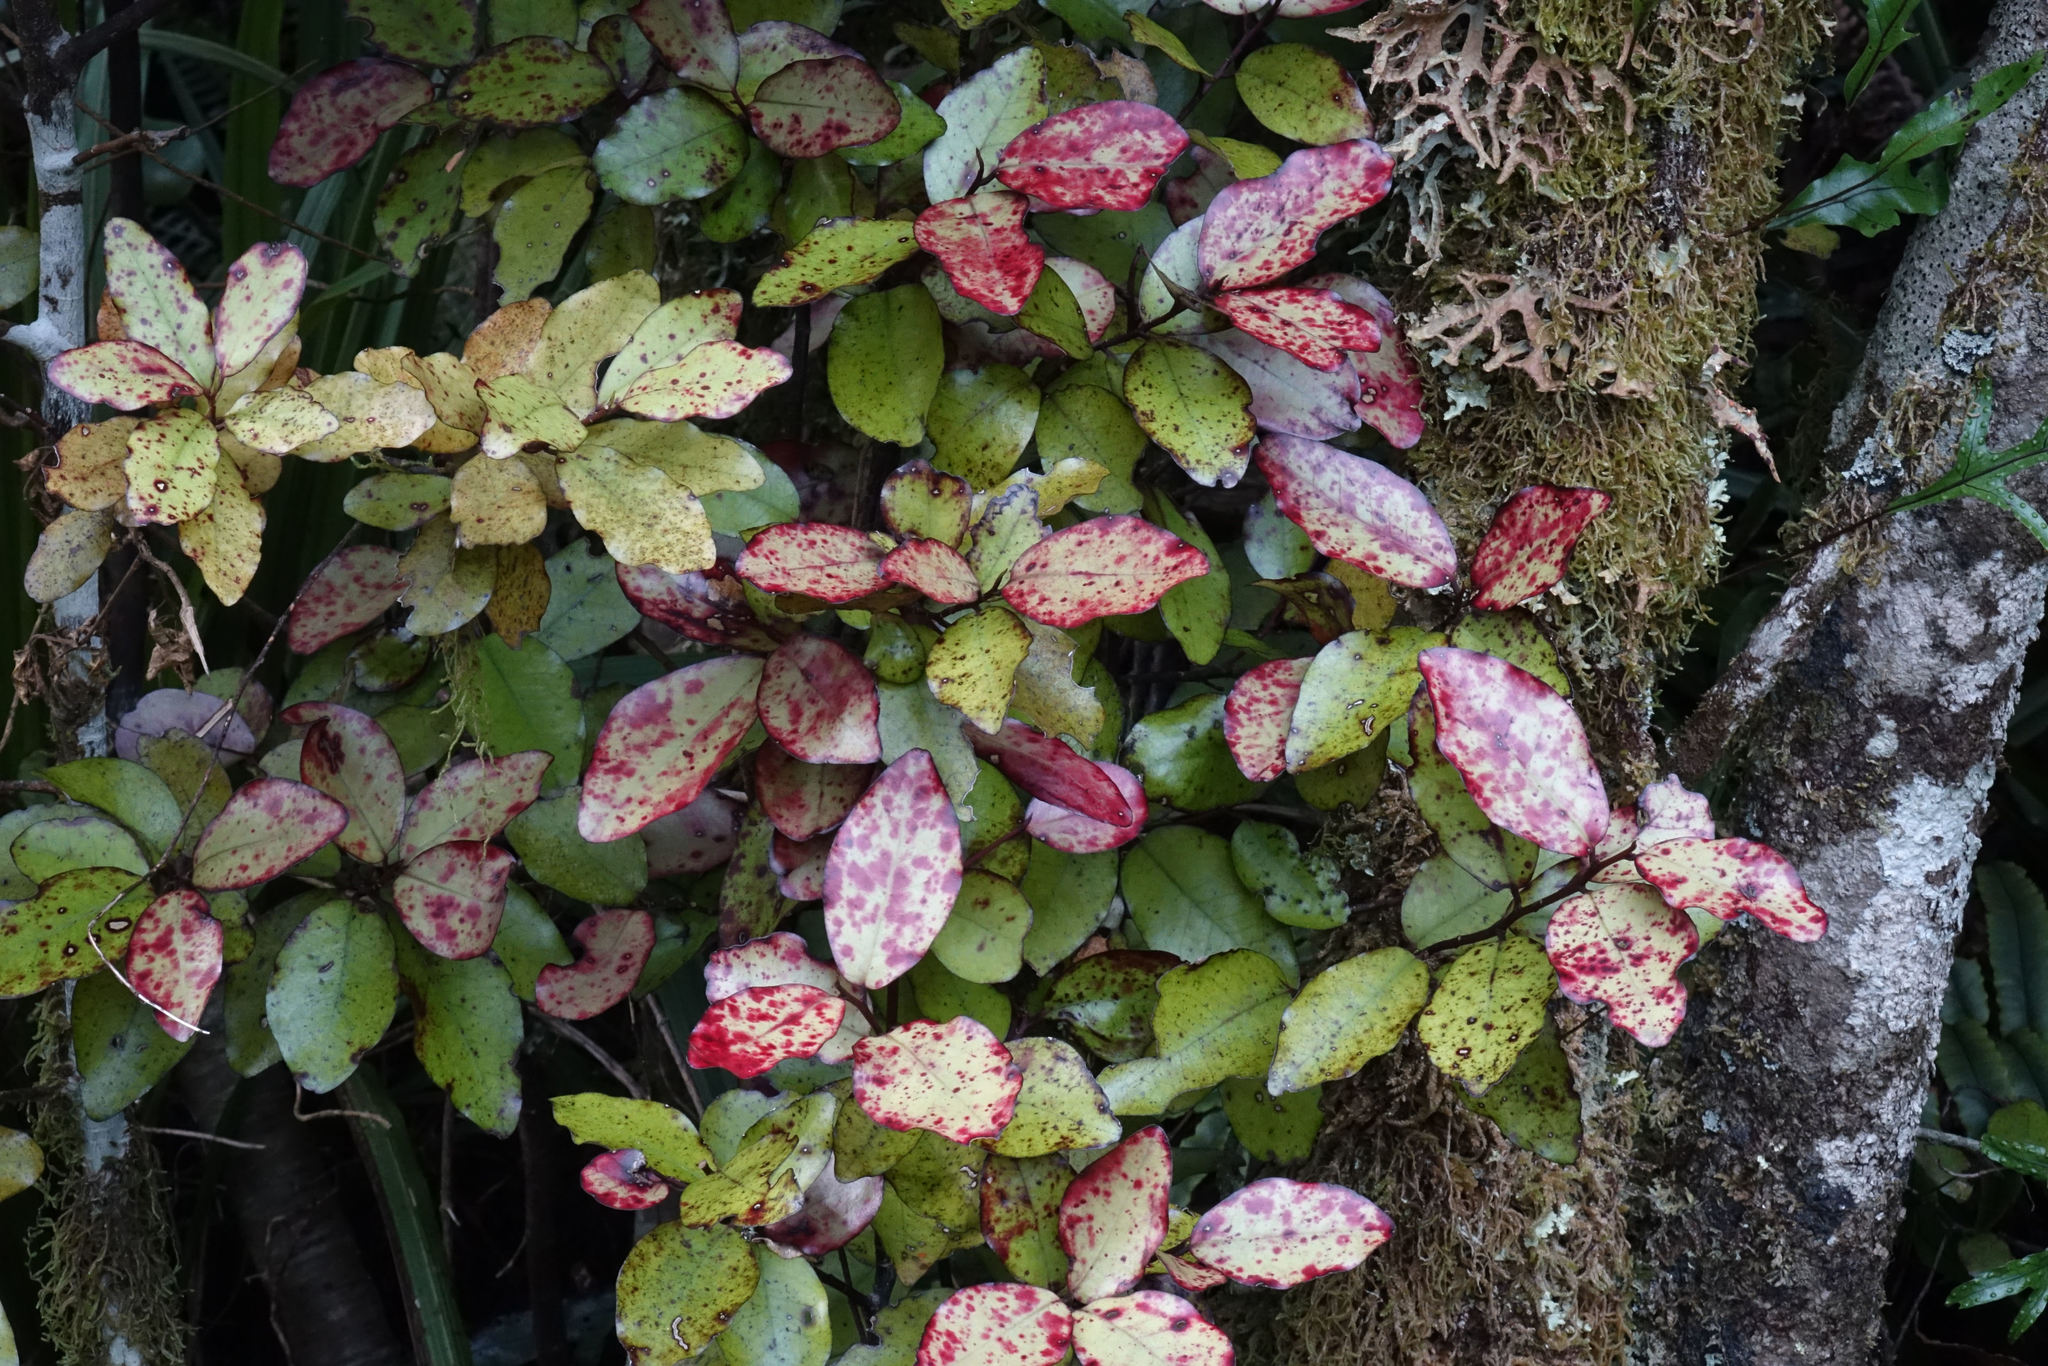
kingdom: Plantae
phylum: Tracheophyta
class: Magnoliopsida
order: Canellales
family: Winteraceae
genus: Pseudowintera
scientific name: Pseudowintera colorata
